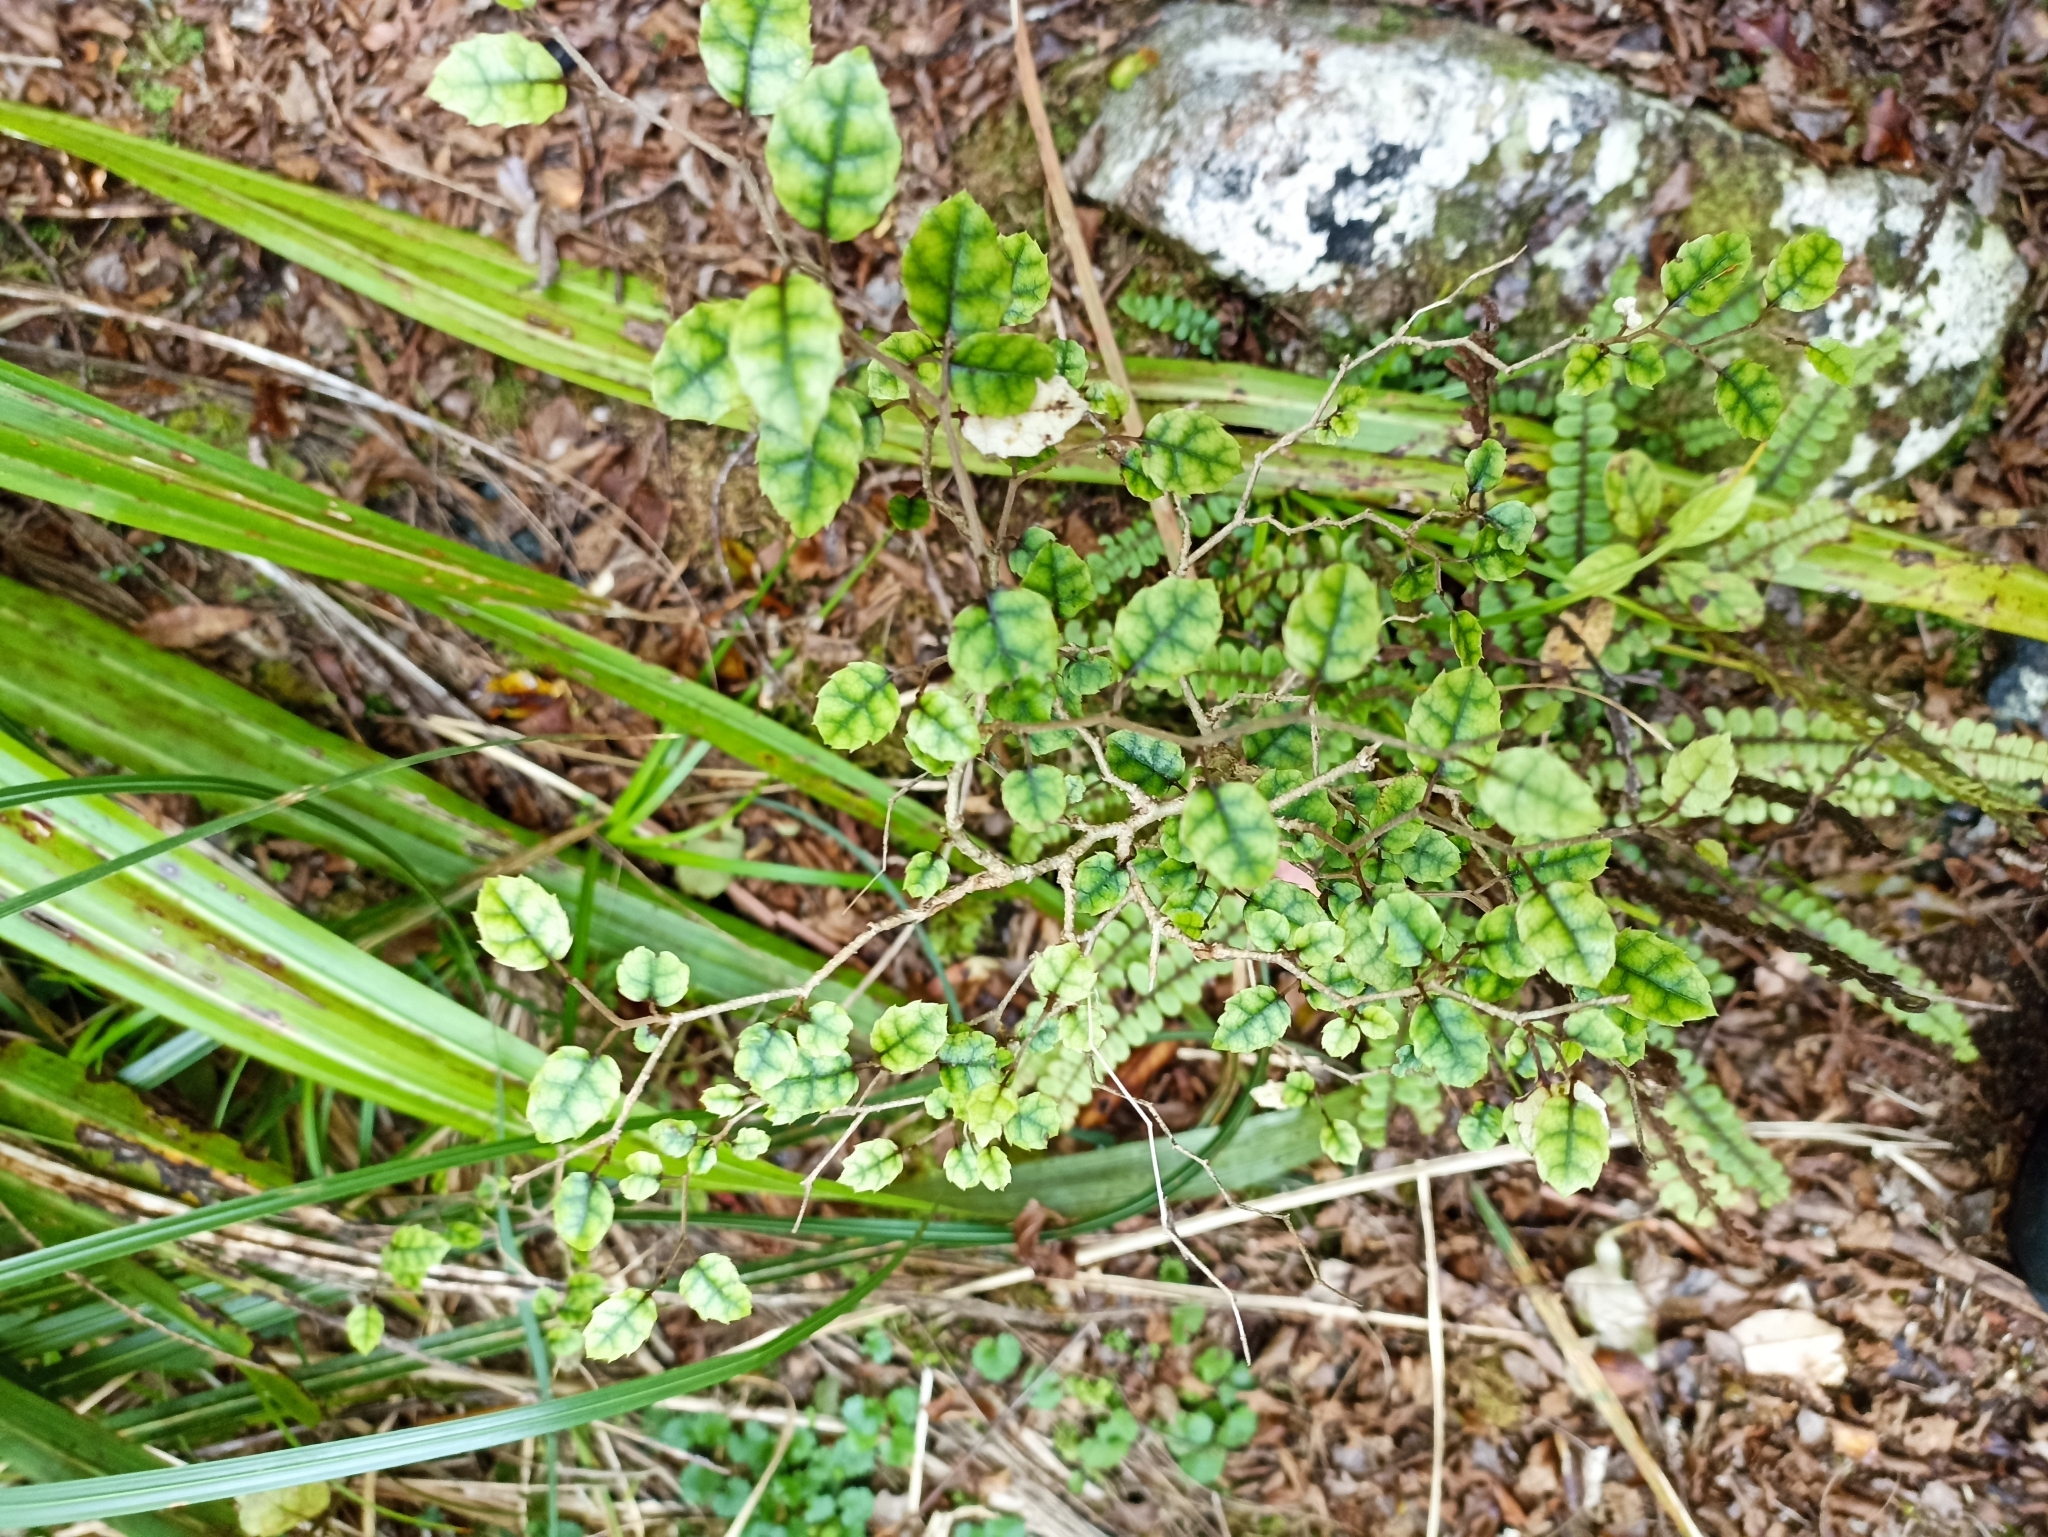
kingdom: Plantae
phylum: Tracheophyta
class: Magnoliopsida
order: Asterales
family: Rousseaceae
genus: Carpodetus
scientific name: Carpodetus serratus
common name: White mapau
